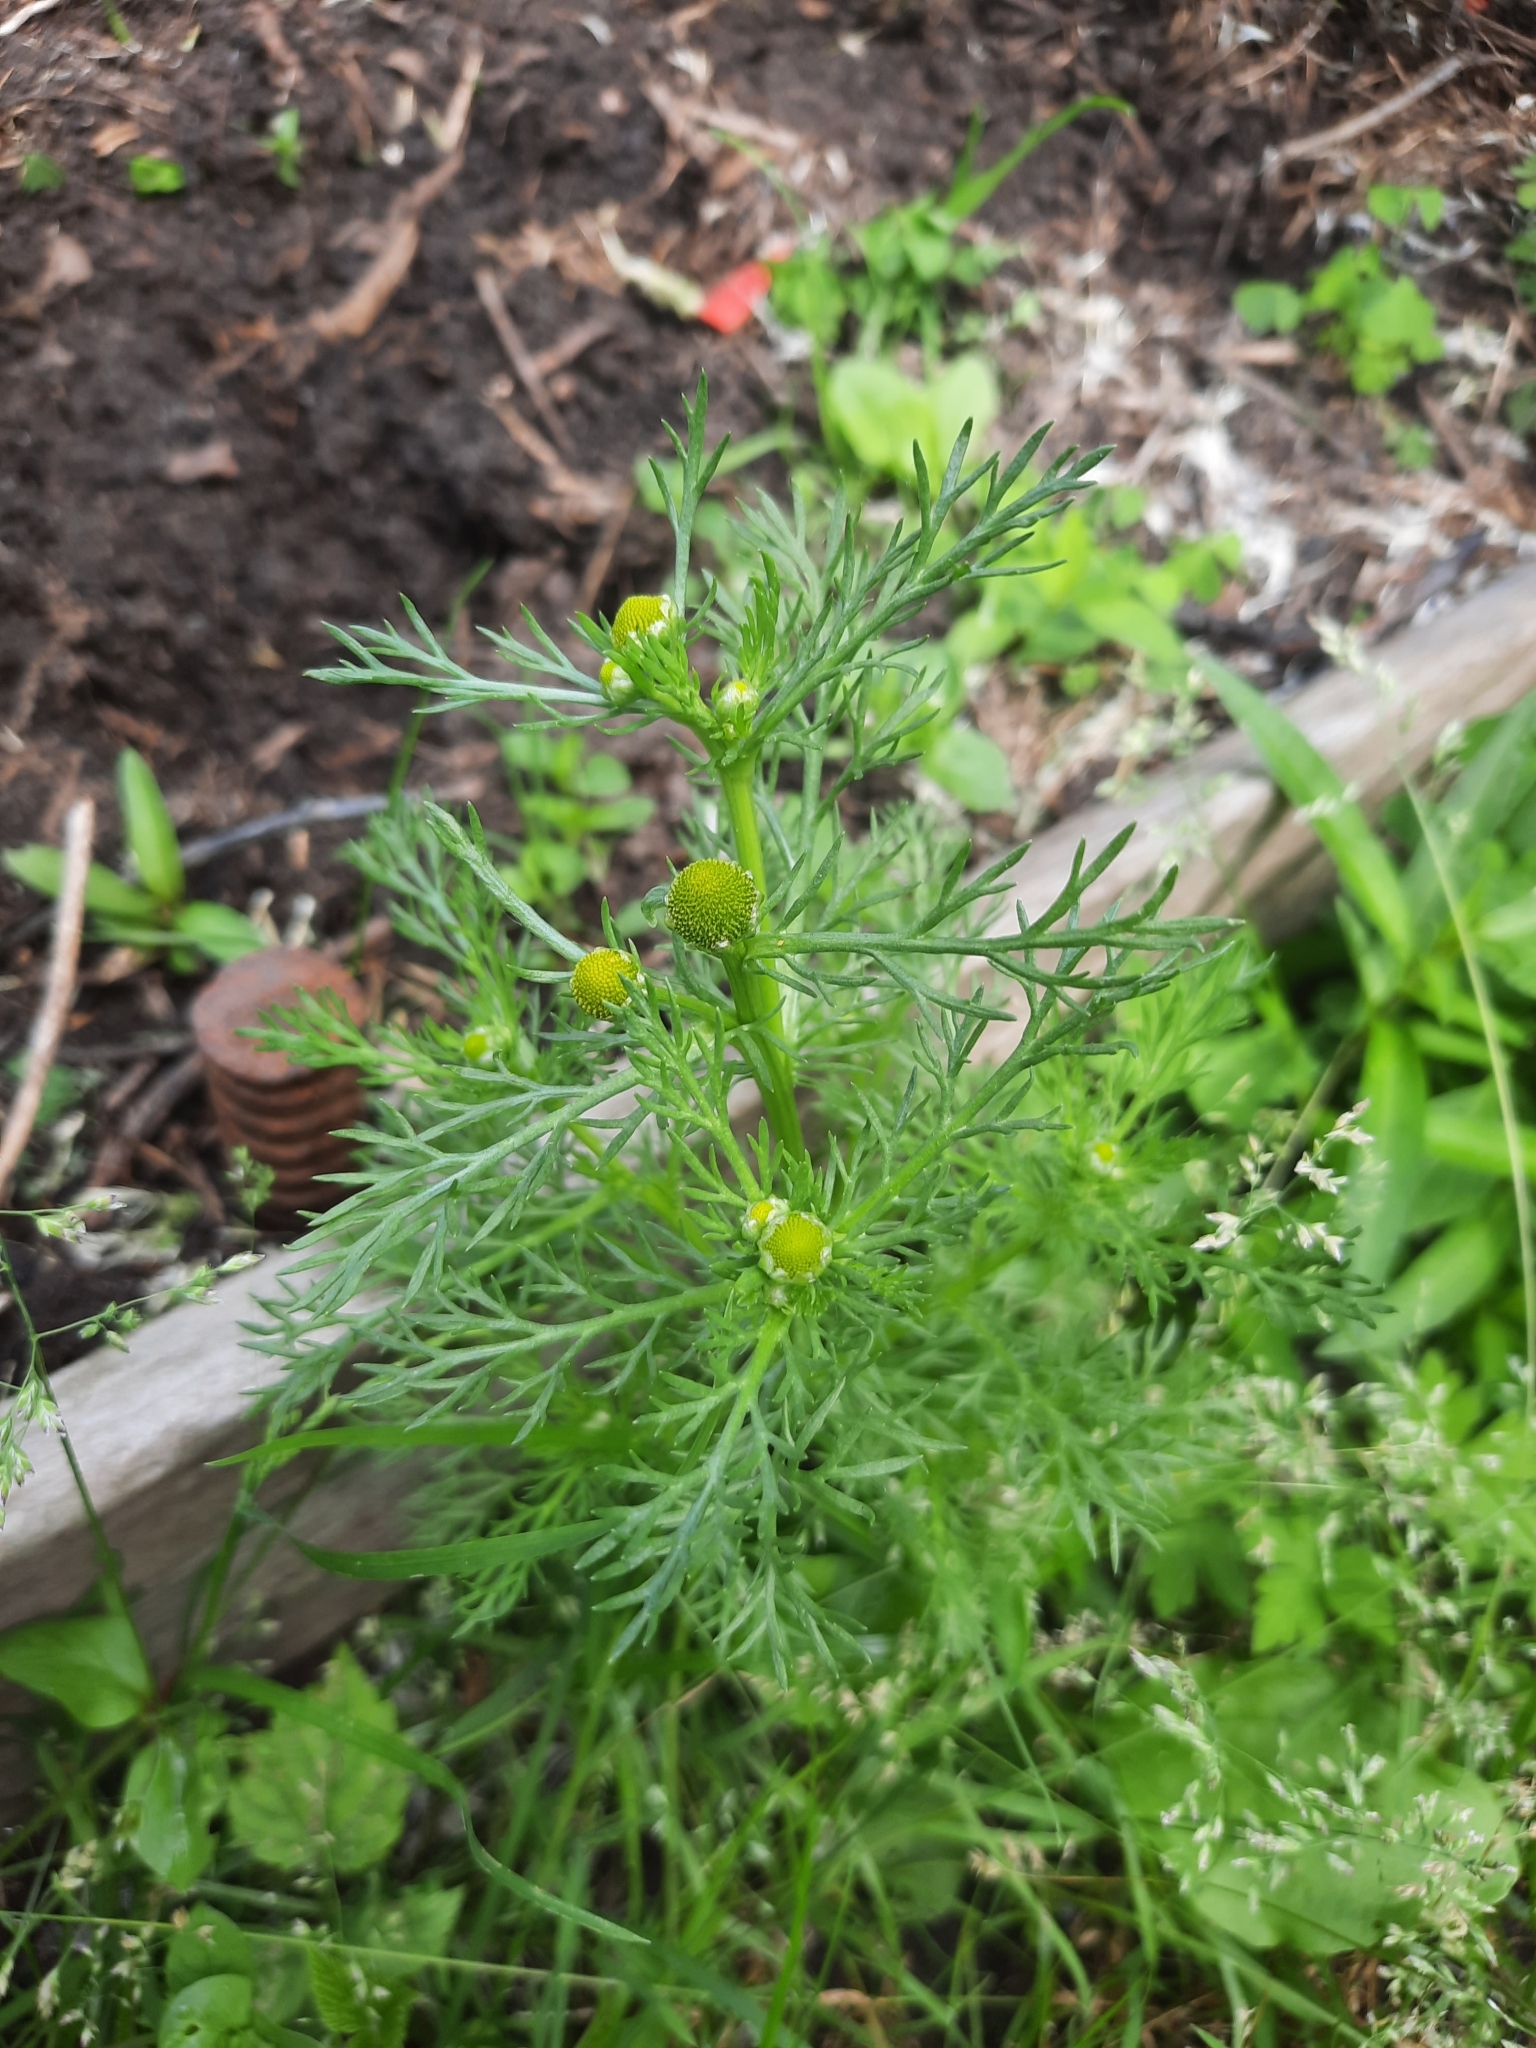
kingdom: Plantae
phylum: Tracheophyta
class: Magnoliopsida
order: Asterales
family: Asteraceae
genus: Matricaria
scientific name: Matricaria discoidea
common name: Disc mayweed
